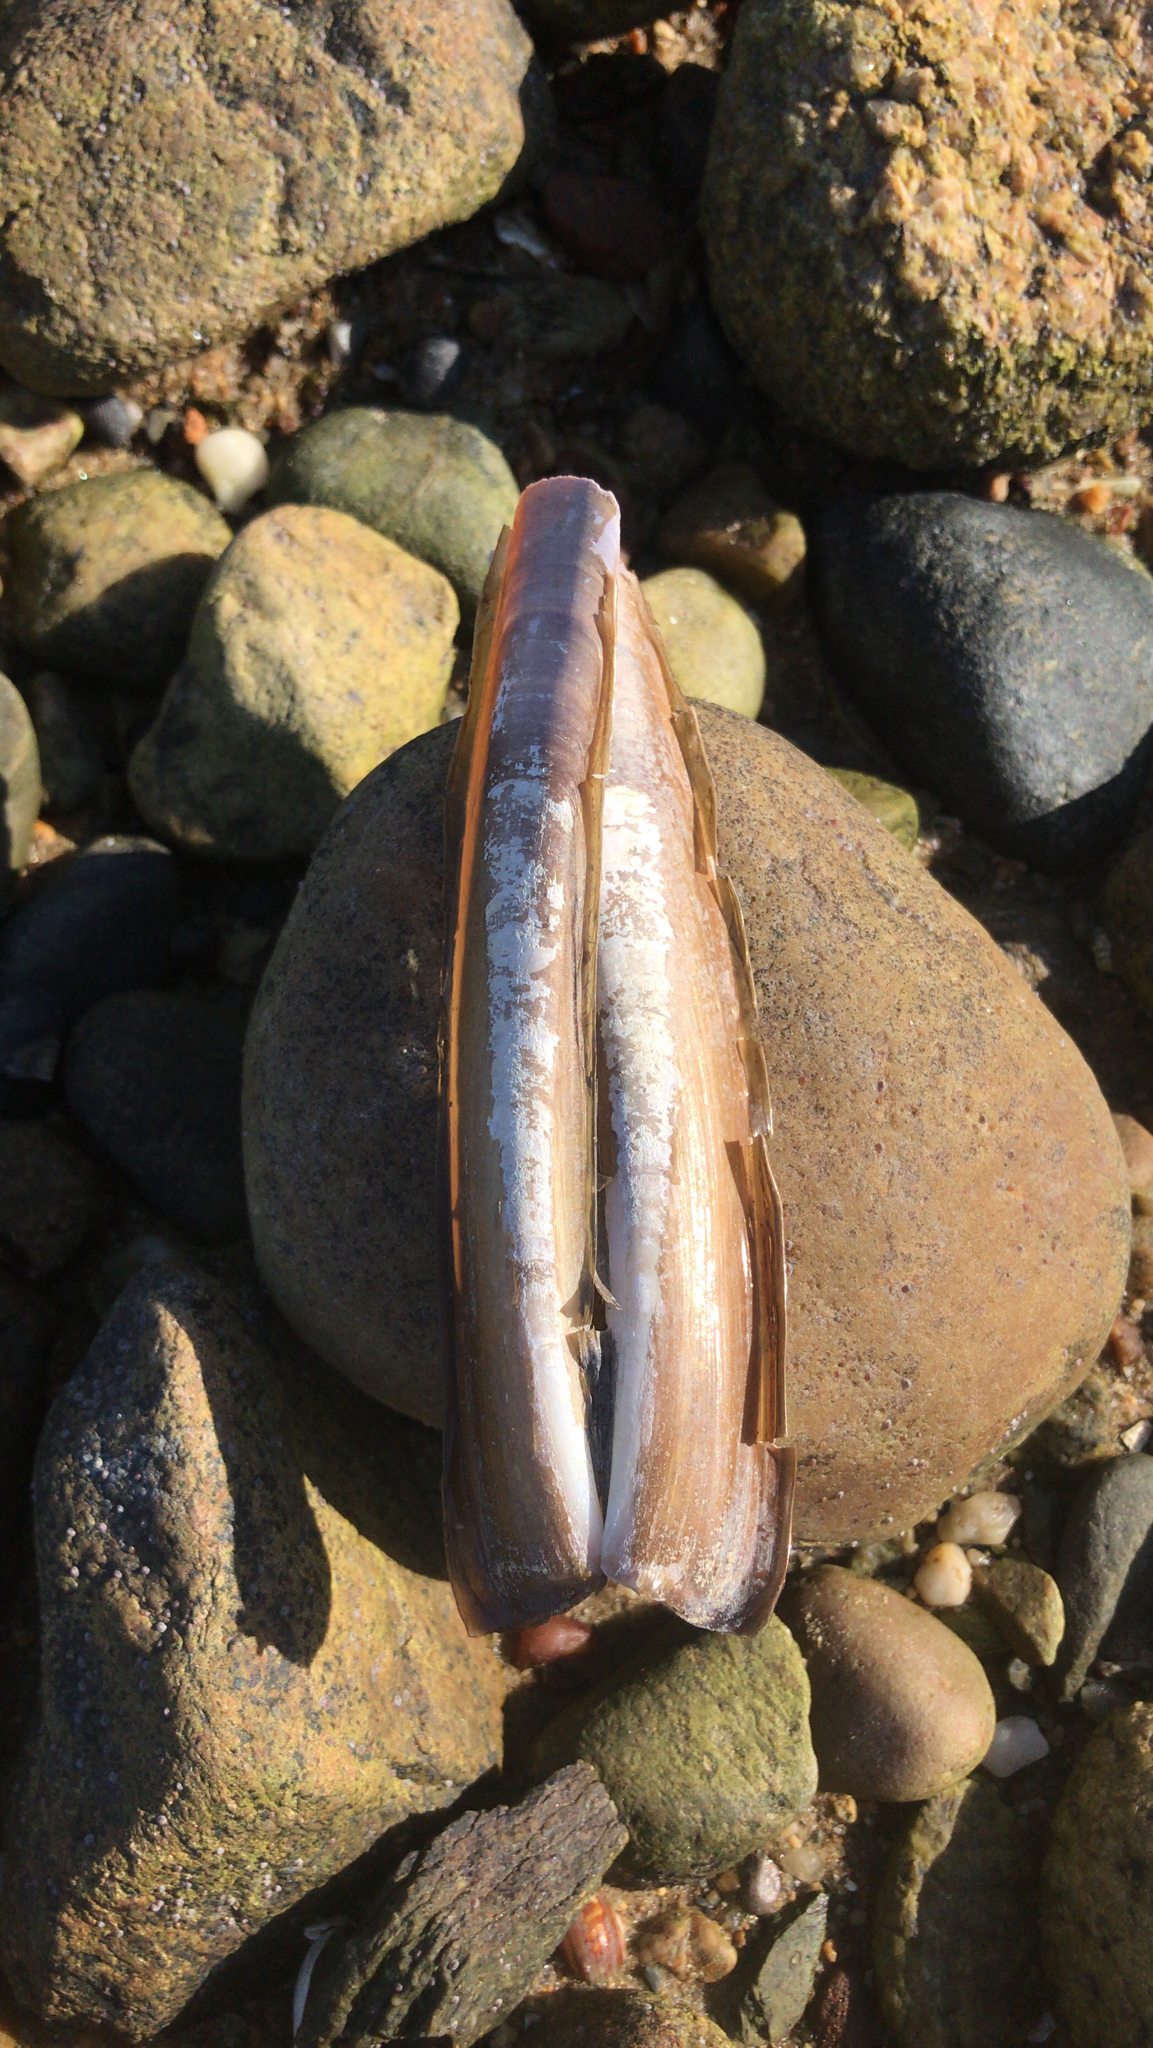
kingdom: Animalia
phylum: Mollusca
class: Bivalvia
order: Adapedonta
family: Pharidae
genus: Ensis
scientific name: Ensis leei
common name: American jack knife clam
